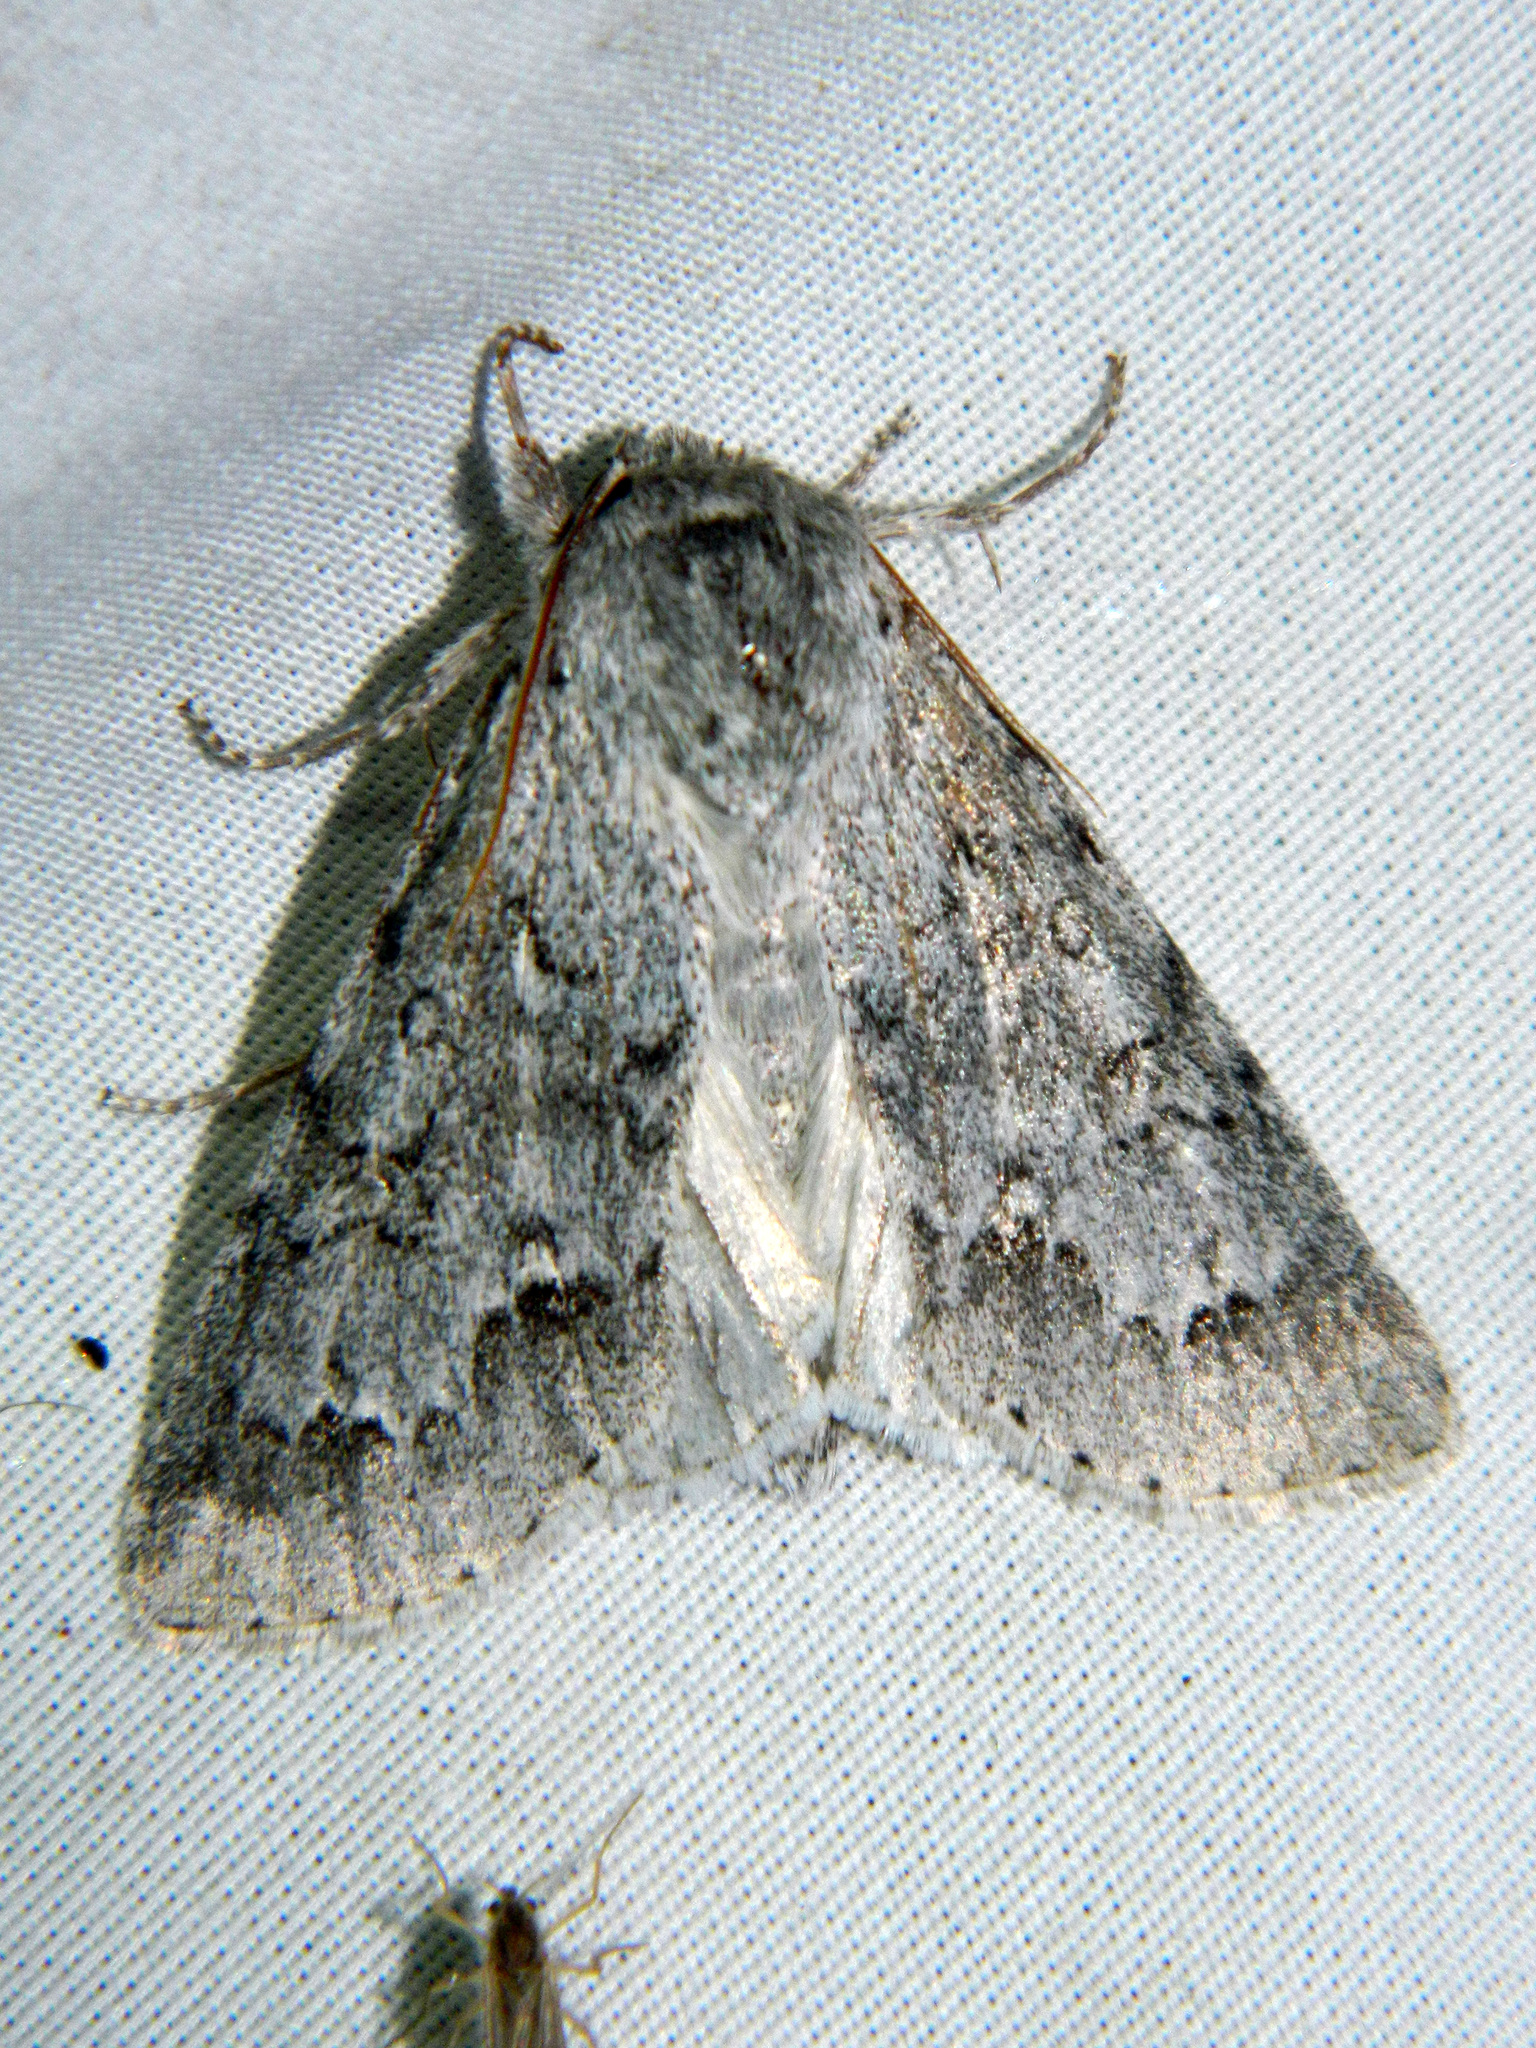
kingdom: Animalia
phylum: Arthropoda
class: Insecta
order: Lepidoptera
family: Noctuidae
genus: Acronicta
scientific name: Acronicta insita
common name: Large gray dagger
